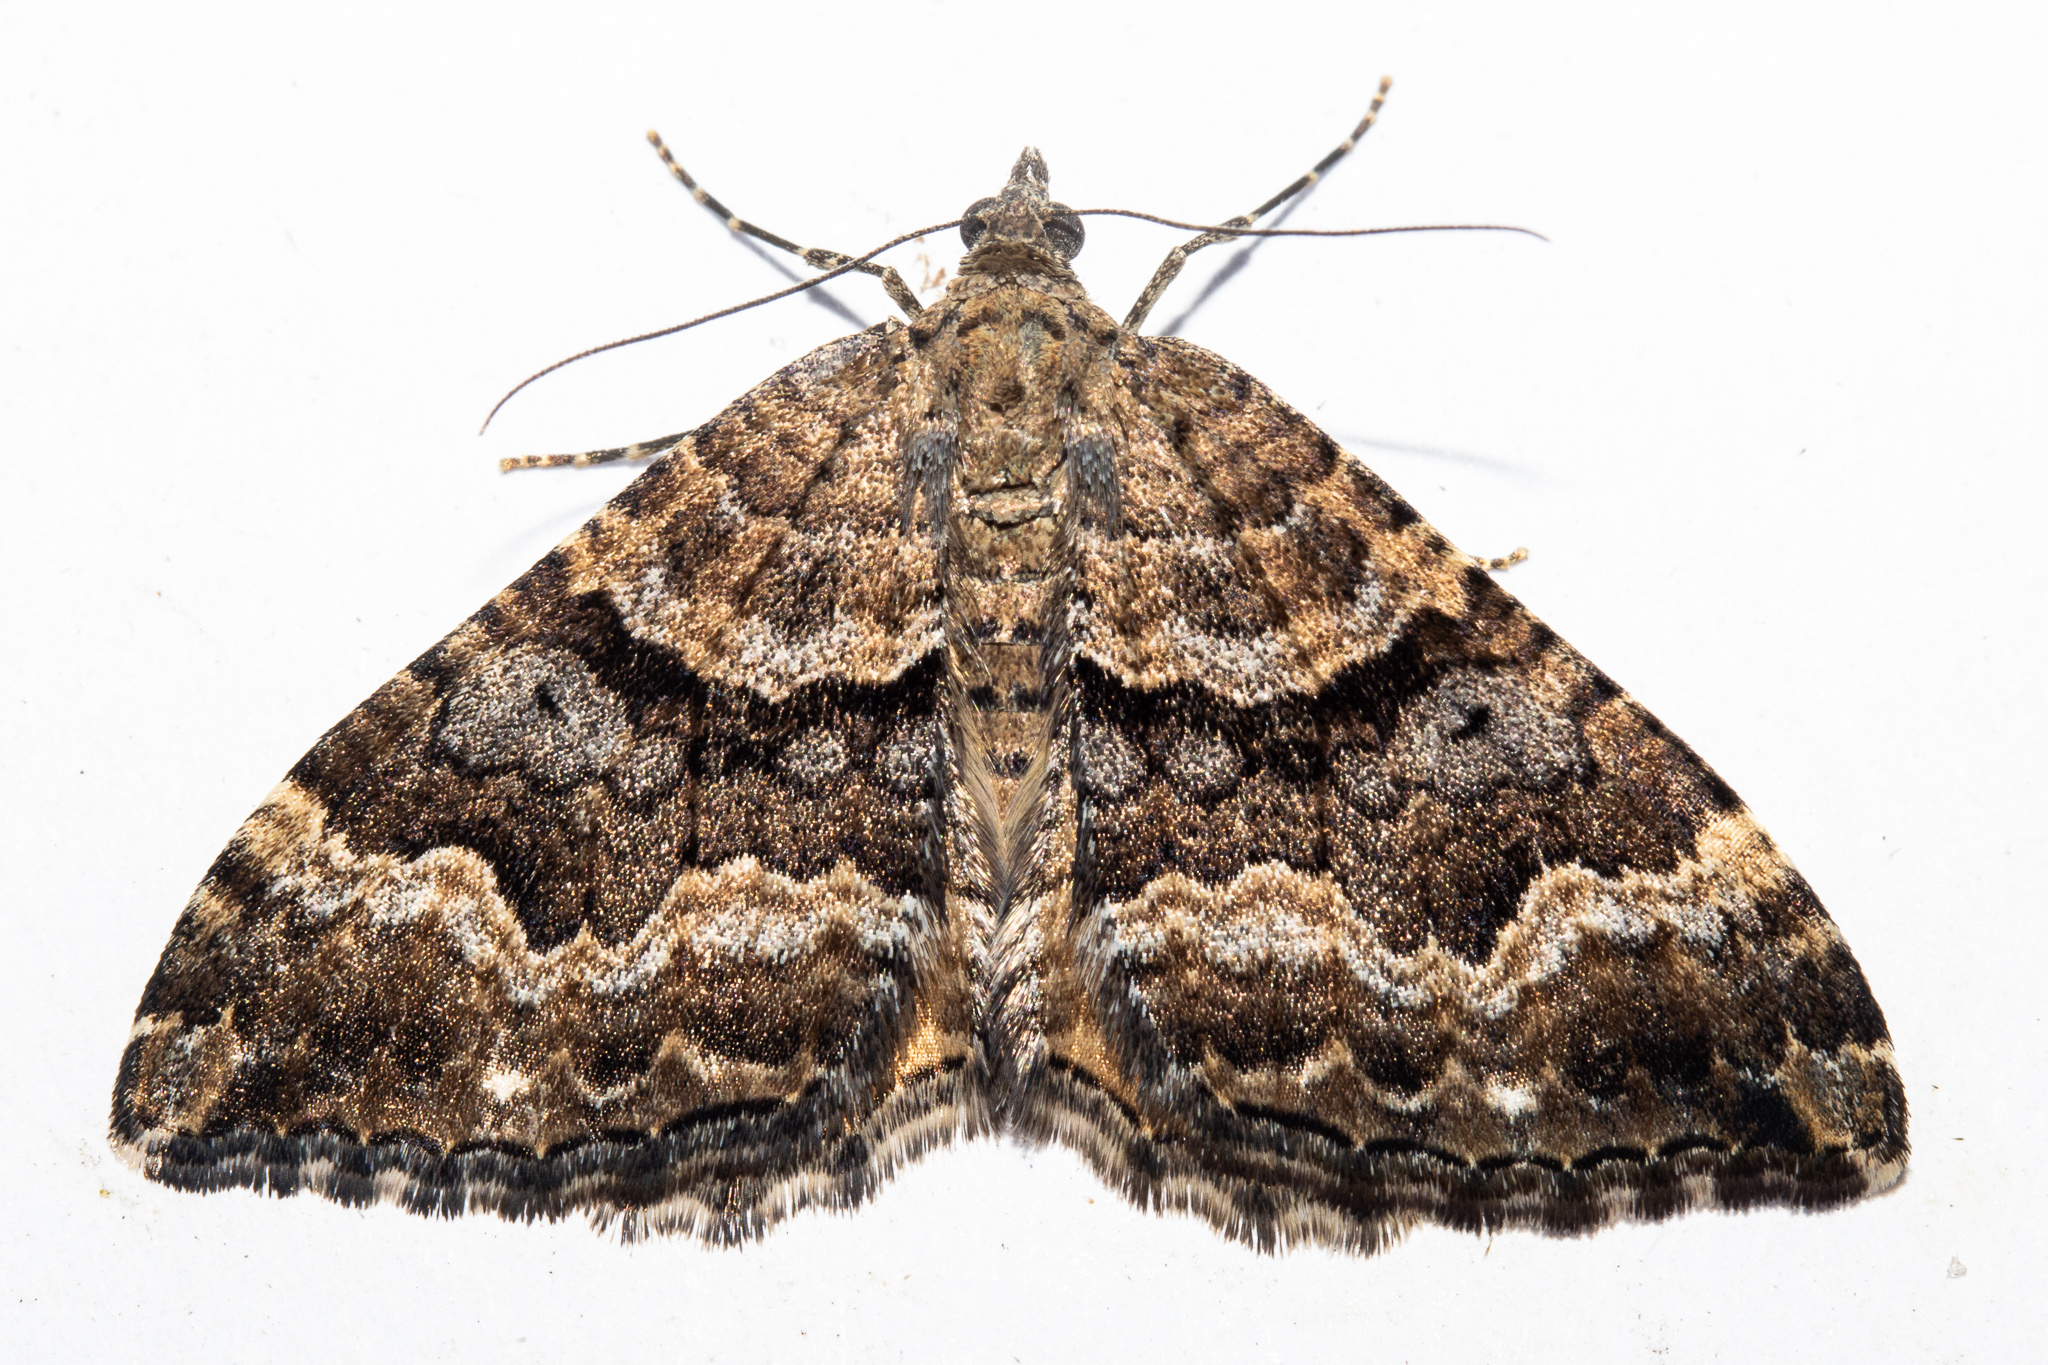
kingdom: Animalia
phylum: Arthropoda
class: Insecta
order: Lepidoptera
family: Geometridae
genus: Hydriomena
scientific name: Hydriomena deltoidata
